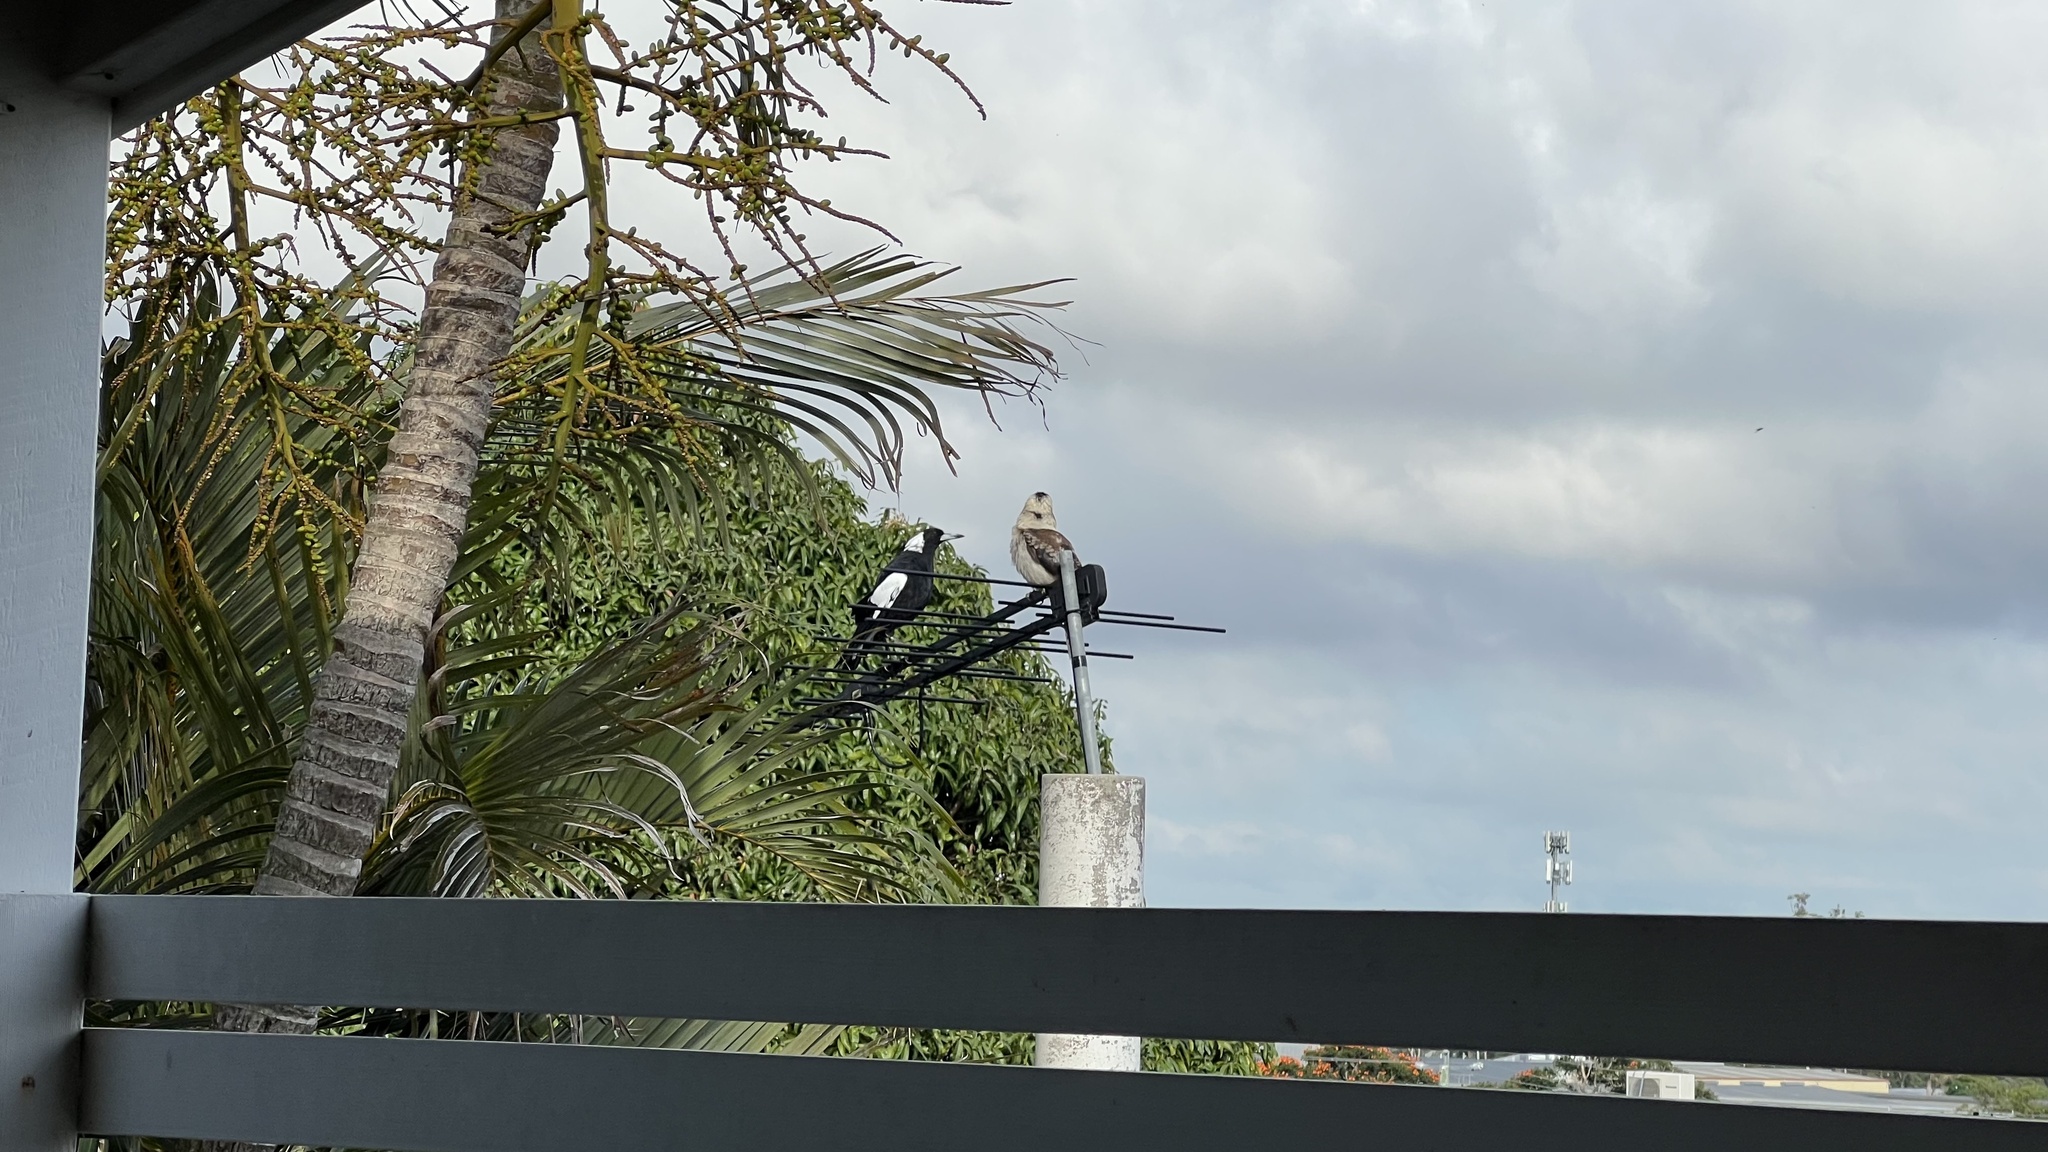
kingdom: Animalia
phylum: Chordata
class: Aves
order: Passeriformes
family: Cracticidae
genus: Gymnorhina
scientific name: Gymnorhina tibicen
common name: Australian magpie
